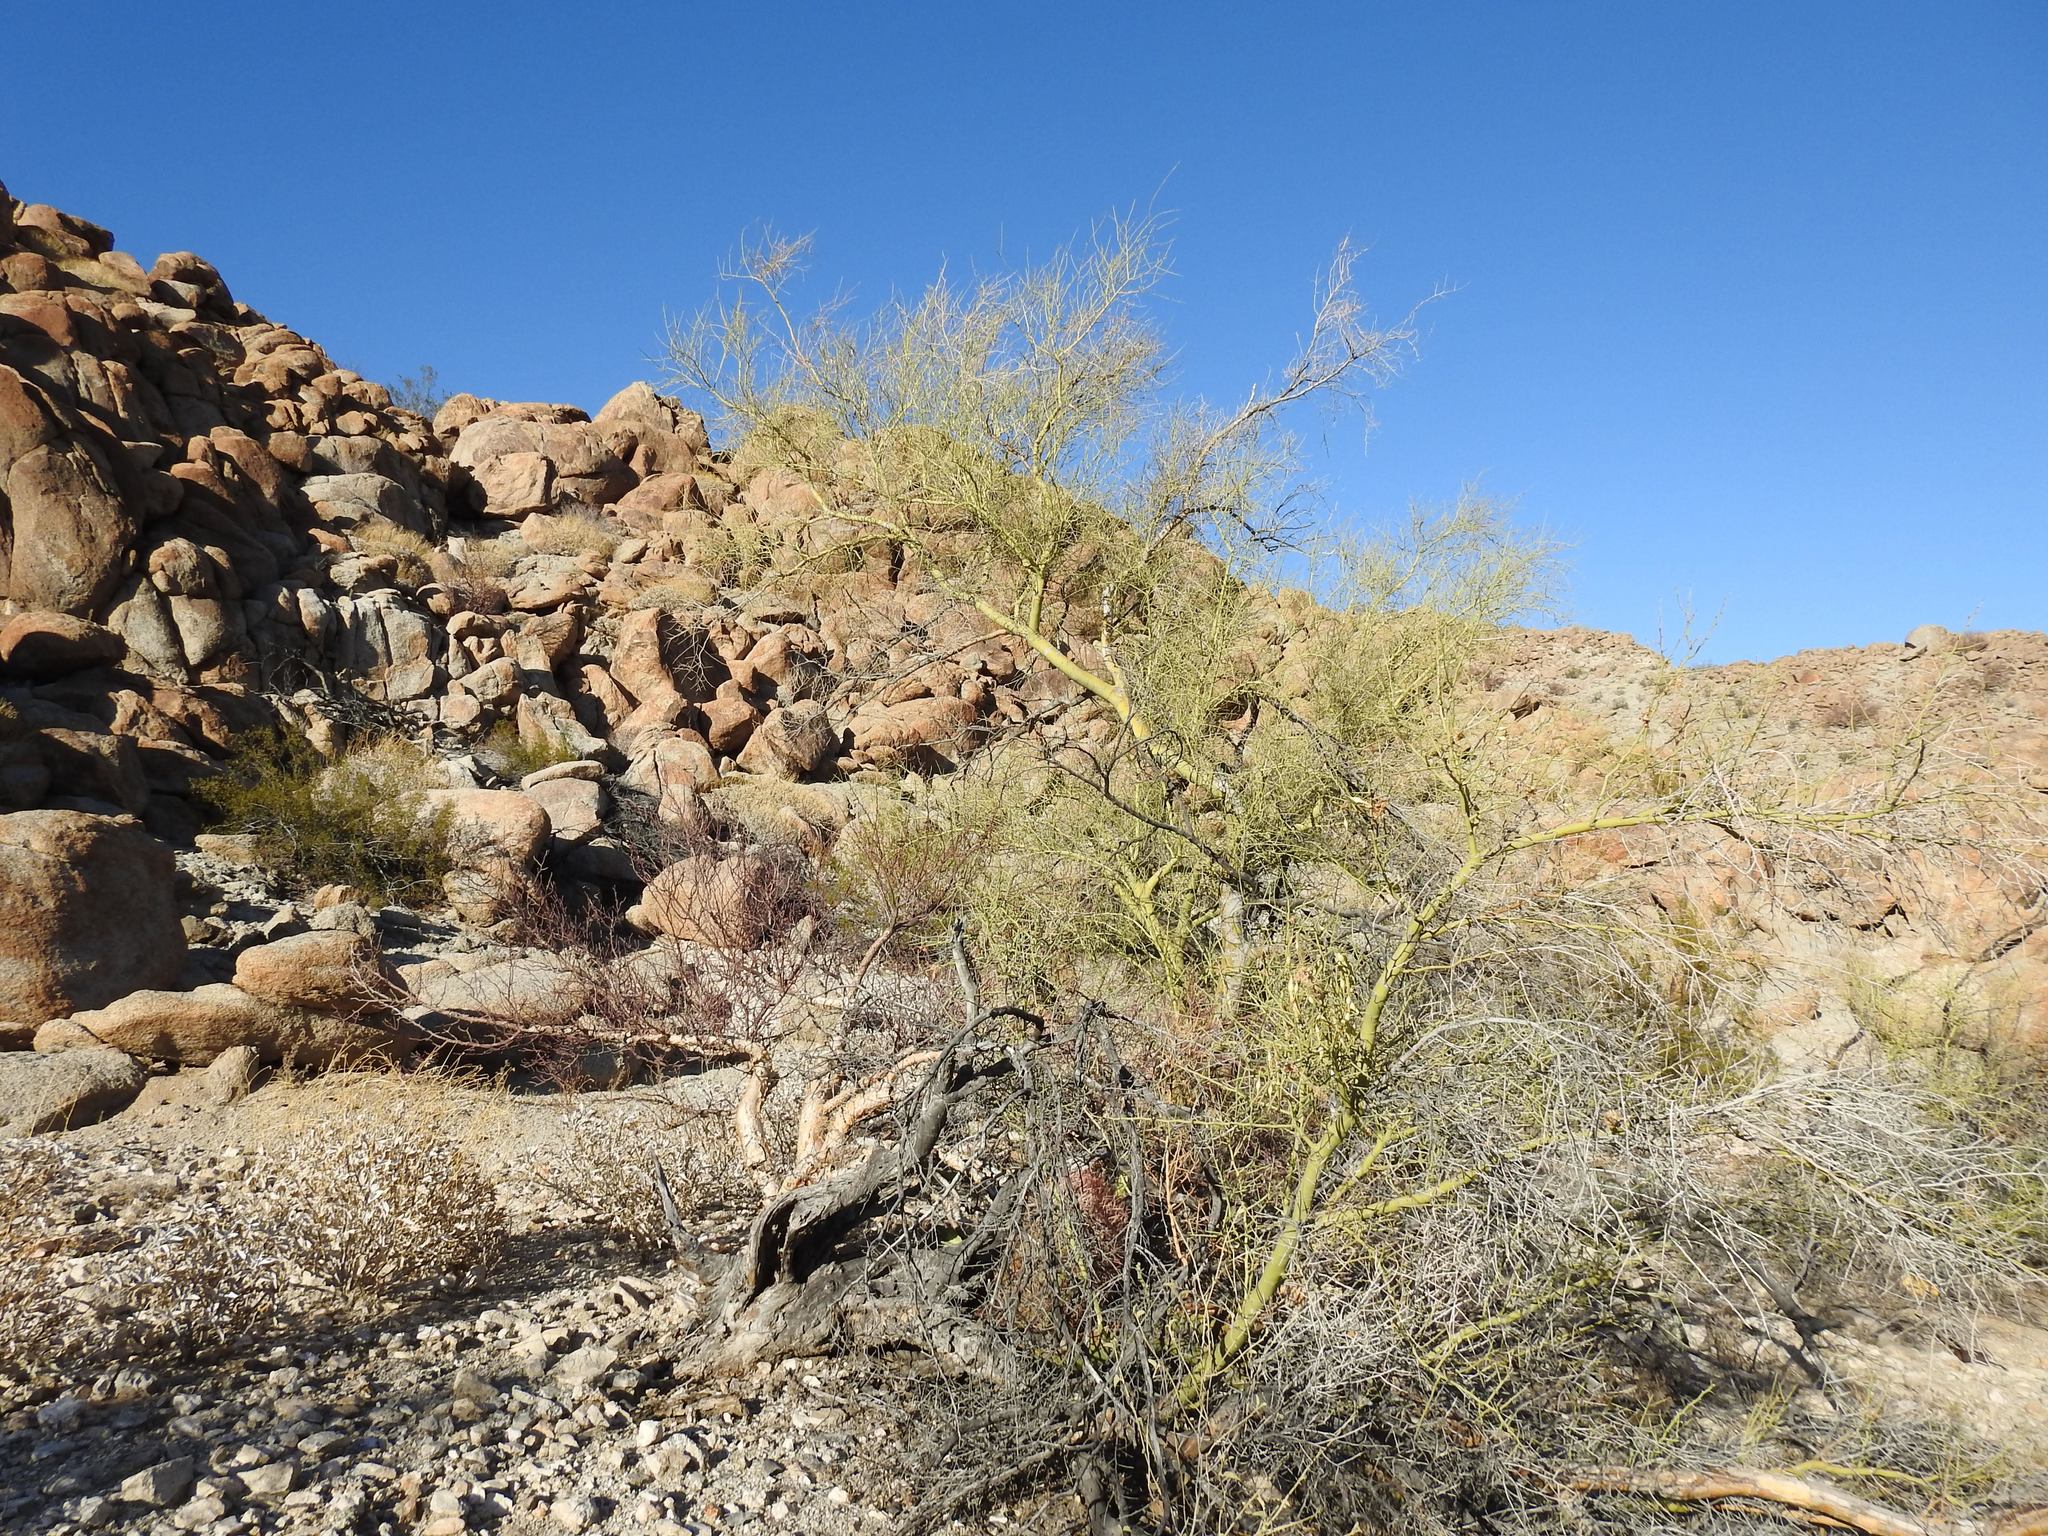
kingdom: Plantae
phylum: Tracheophyta
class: Magnoliopsida
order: Fabales
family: Fabaceae
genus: Parkinsonia
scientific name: Parkinsonia microphylla
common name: Yellow paloverde
